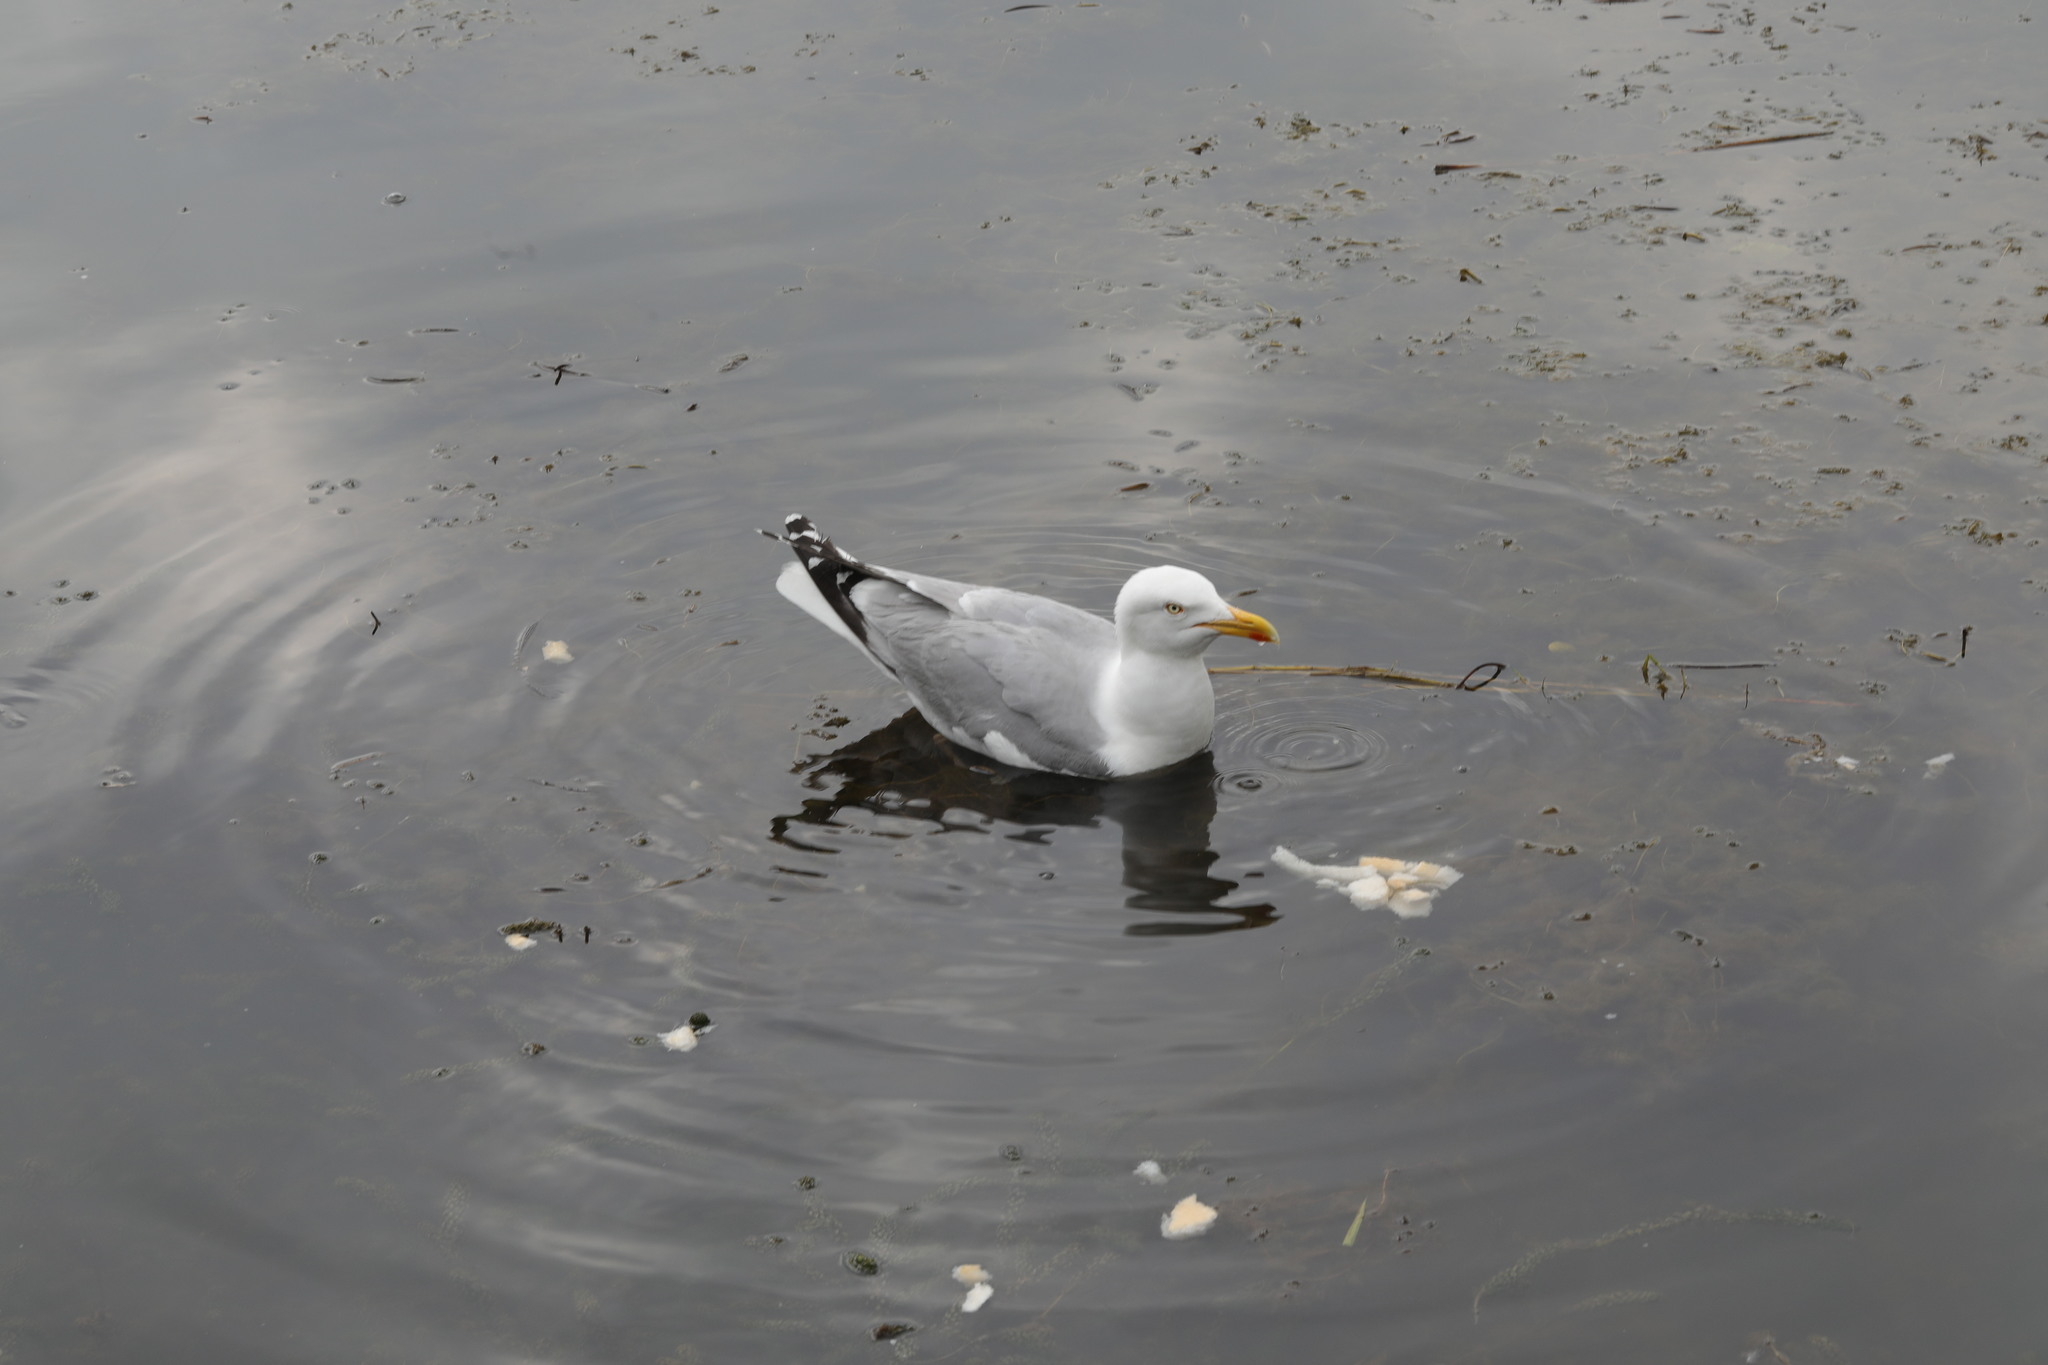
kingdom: Animalia
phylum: Chordata
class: Aves
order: Charadriiformes
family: Laridae
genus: Larus
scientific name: Larus argentatus
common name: Herring gull
